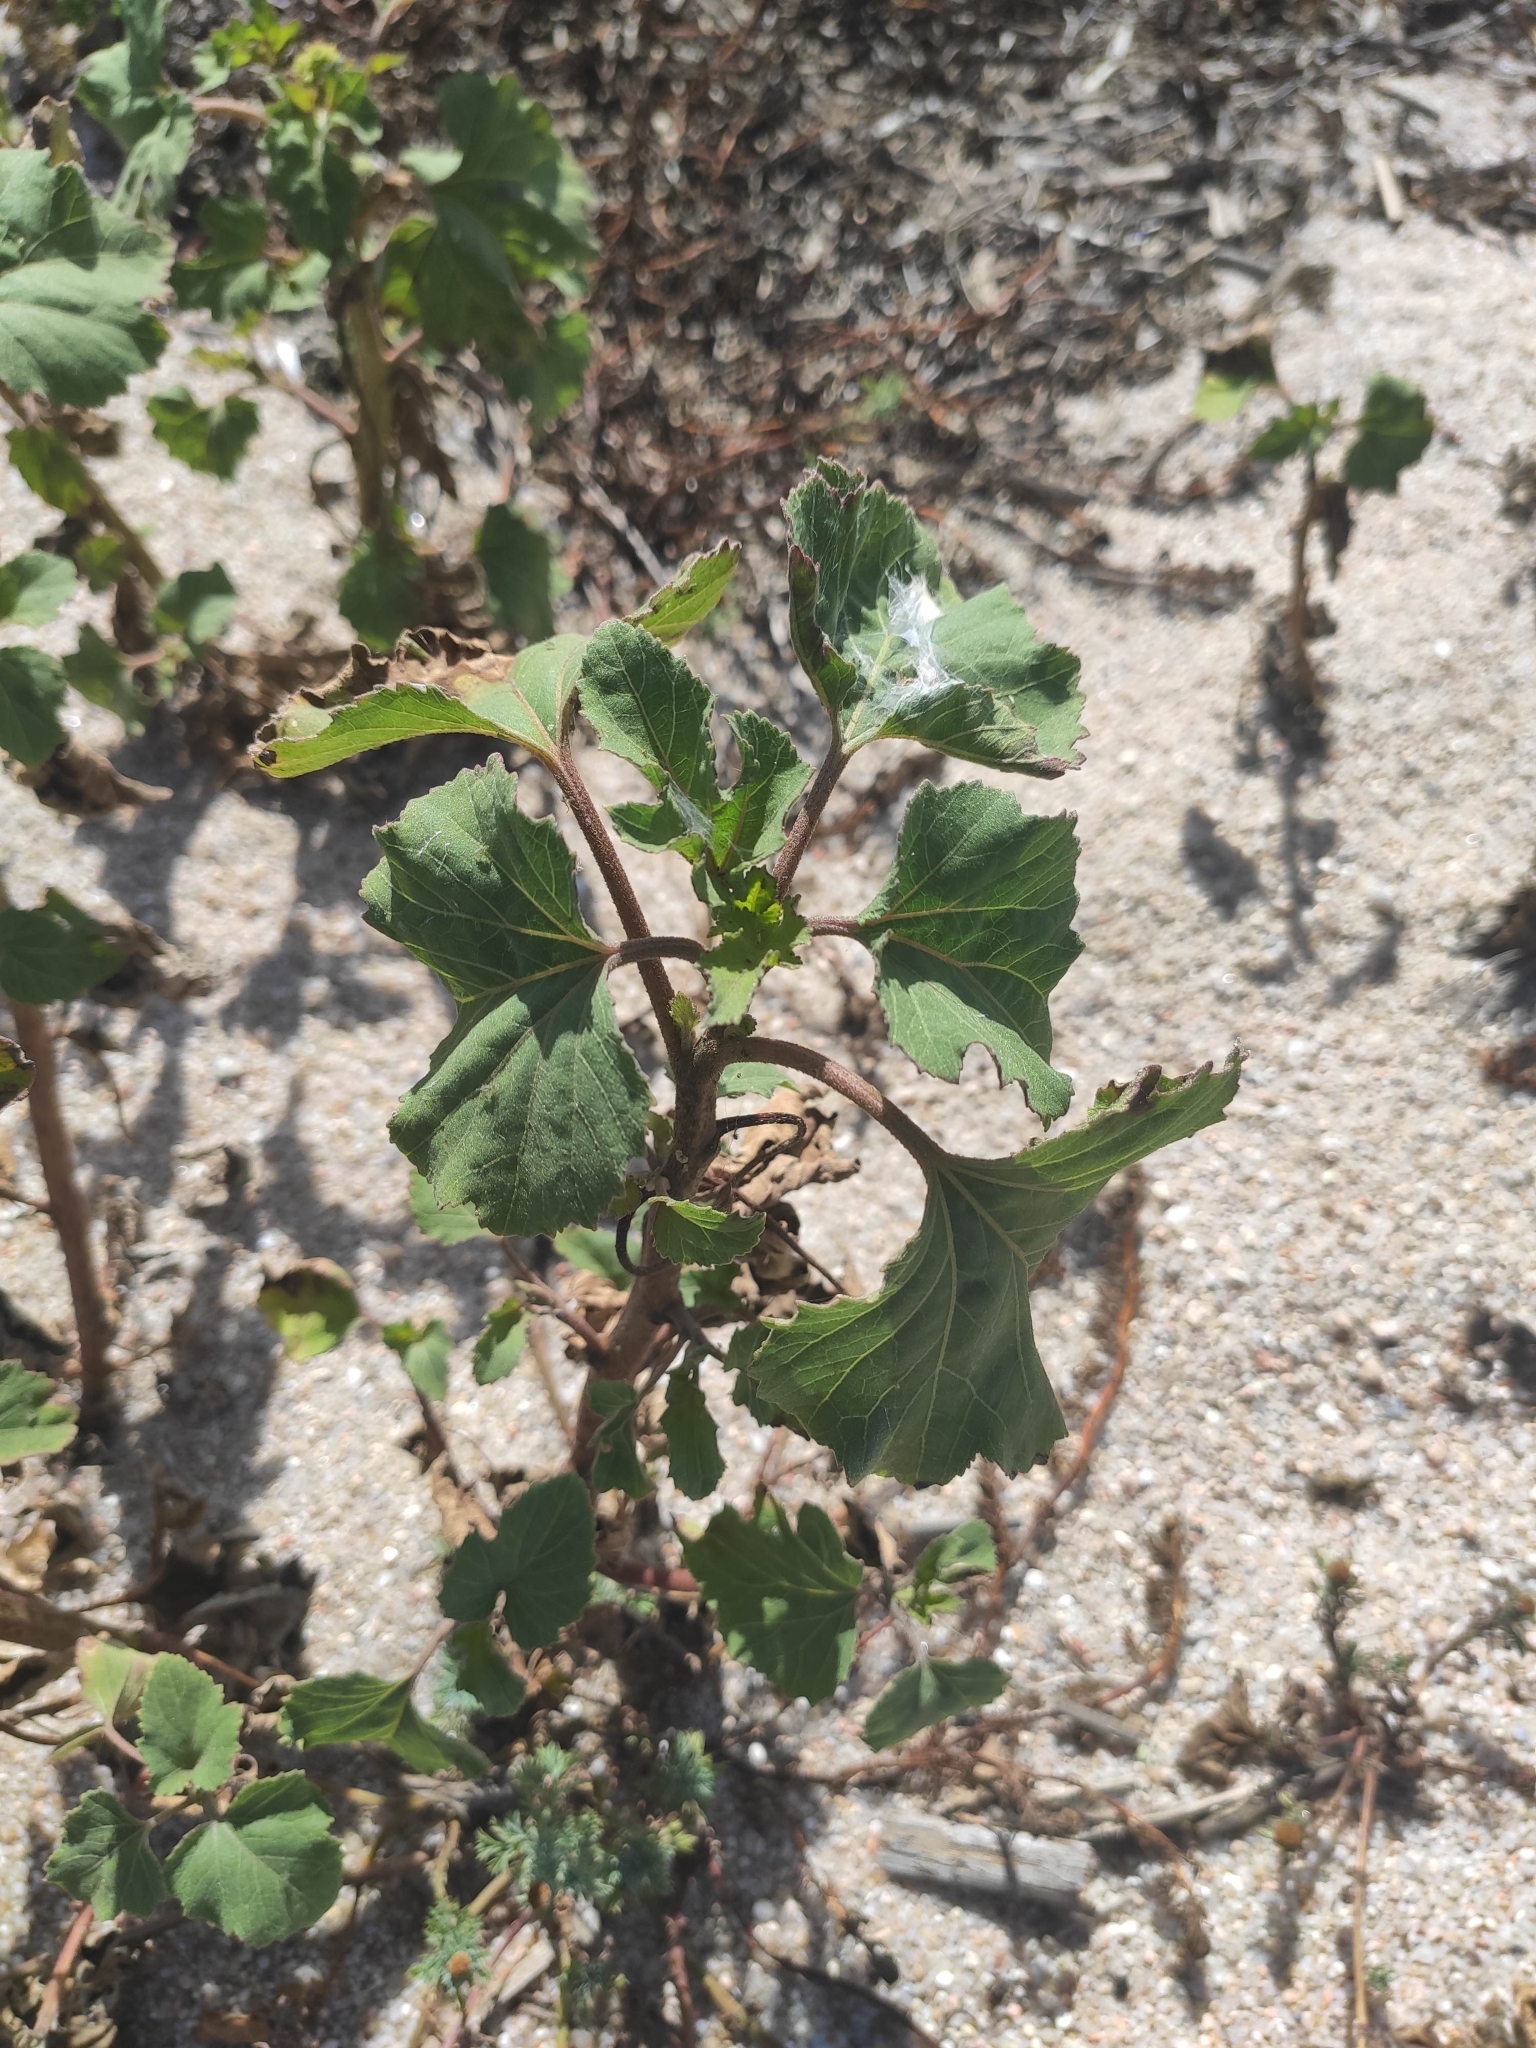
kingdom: Plantae
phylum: Tracheophyta
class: Magnoliopsida
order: Asterales
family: Asteraceae
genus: Xanthium
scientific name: Xanthium strumarium
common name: Rough cocklebur
